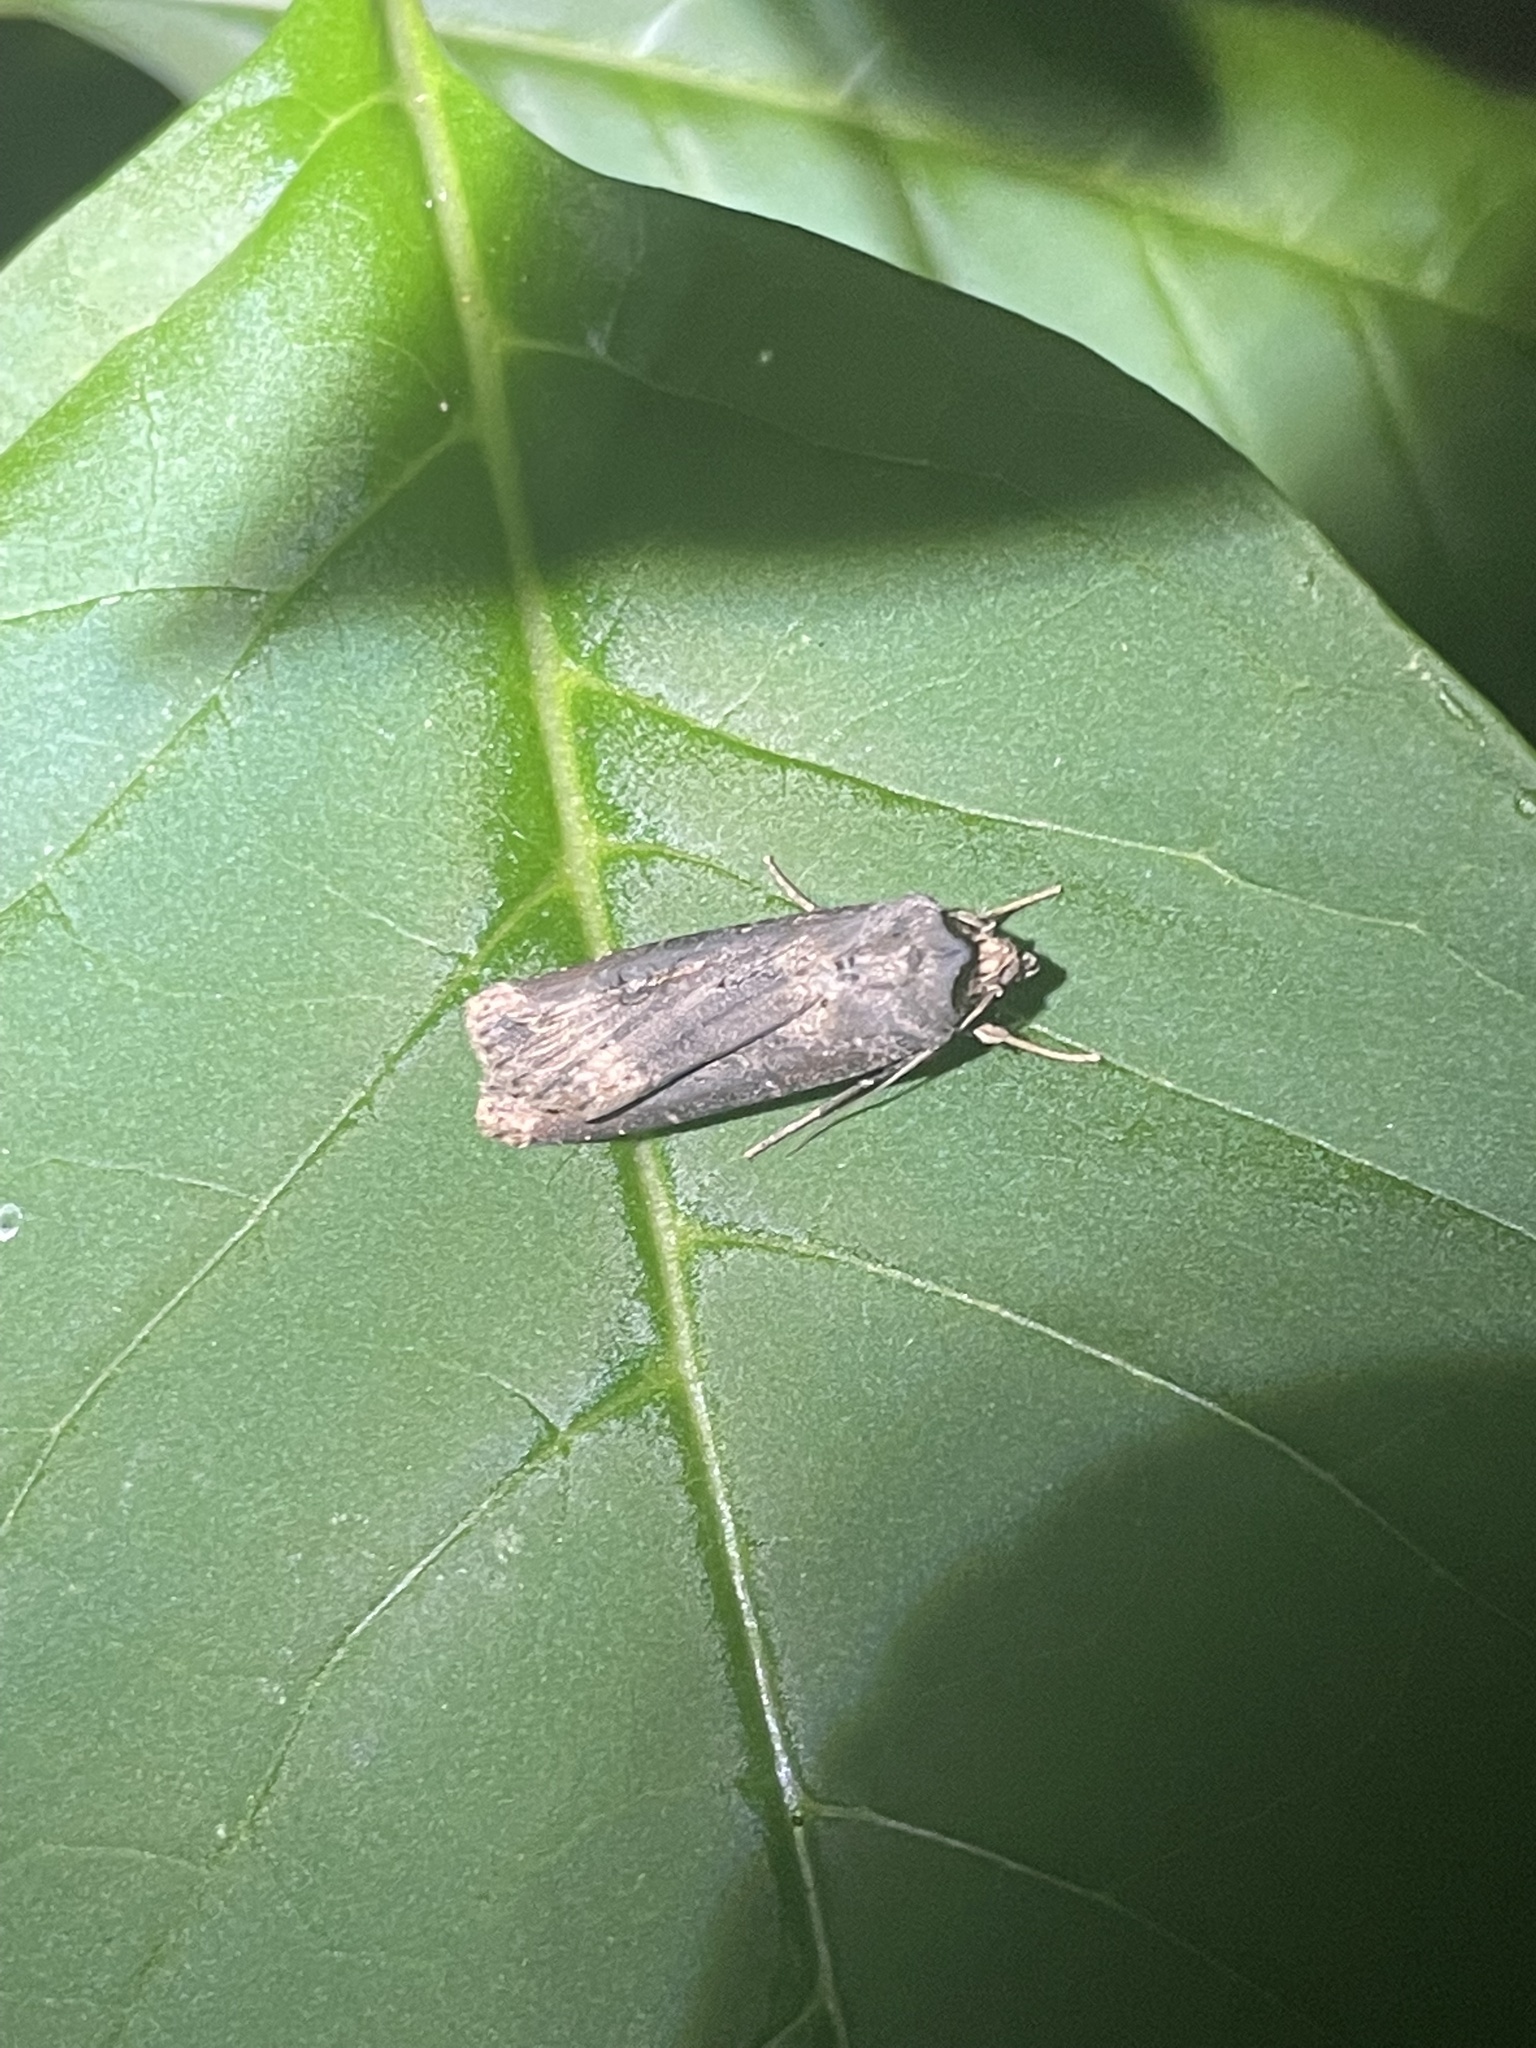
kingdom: Animalia
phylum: Arthropoda
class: Insecta
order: Lepidoptera
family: Noctuidae
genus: Agrotis
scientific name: Agrotis ipsilon
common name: Dark sword-grass
